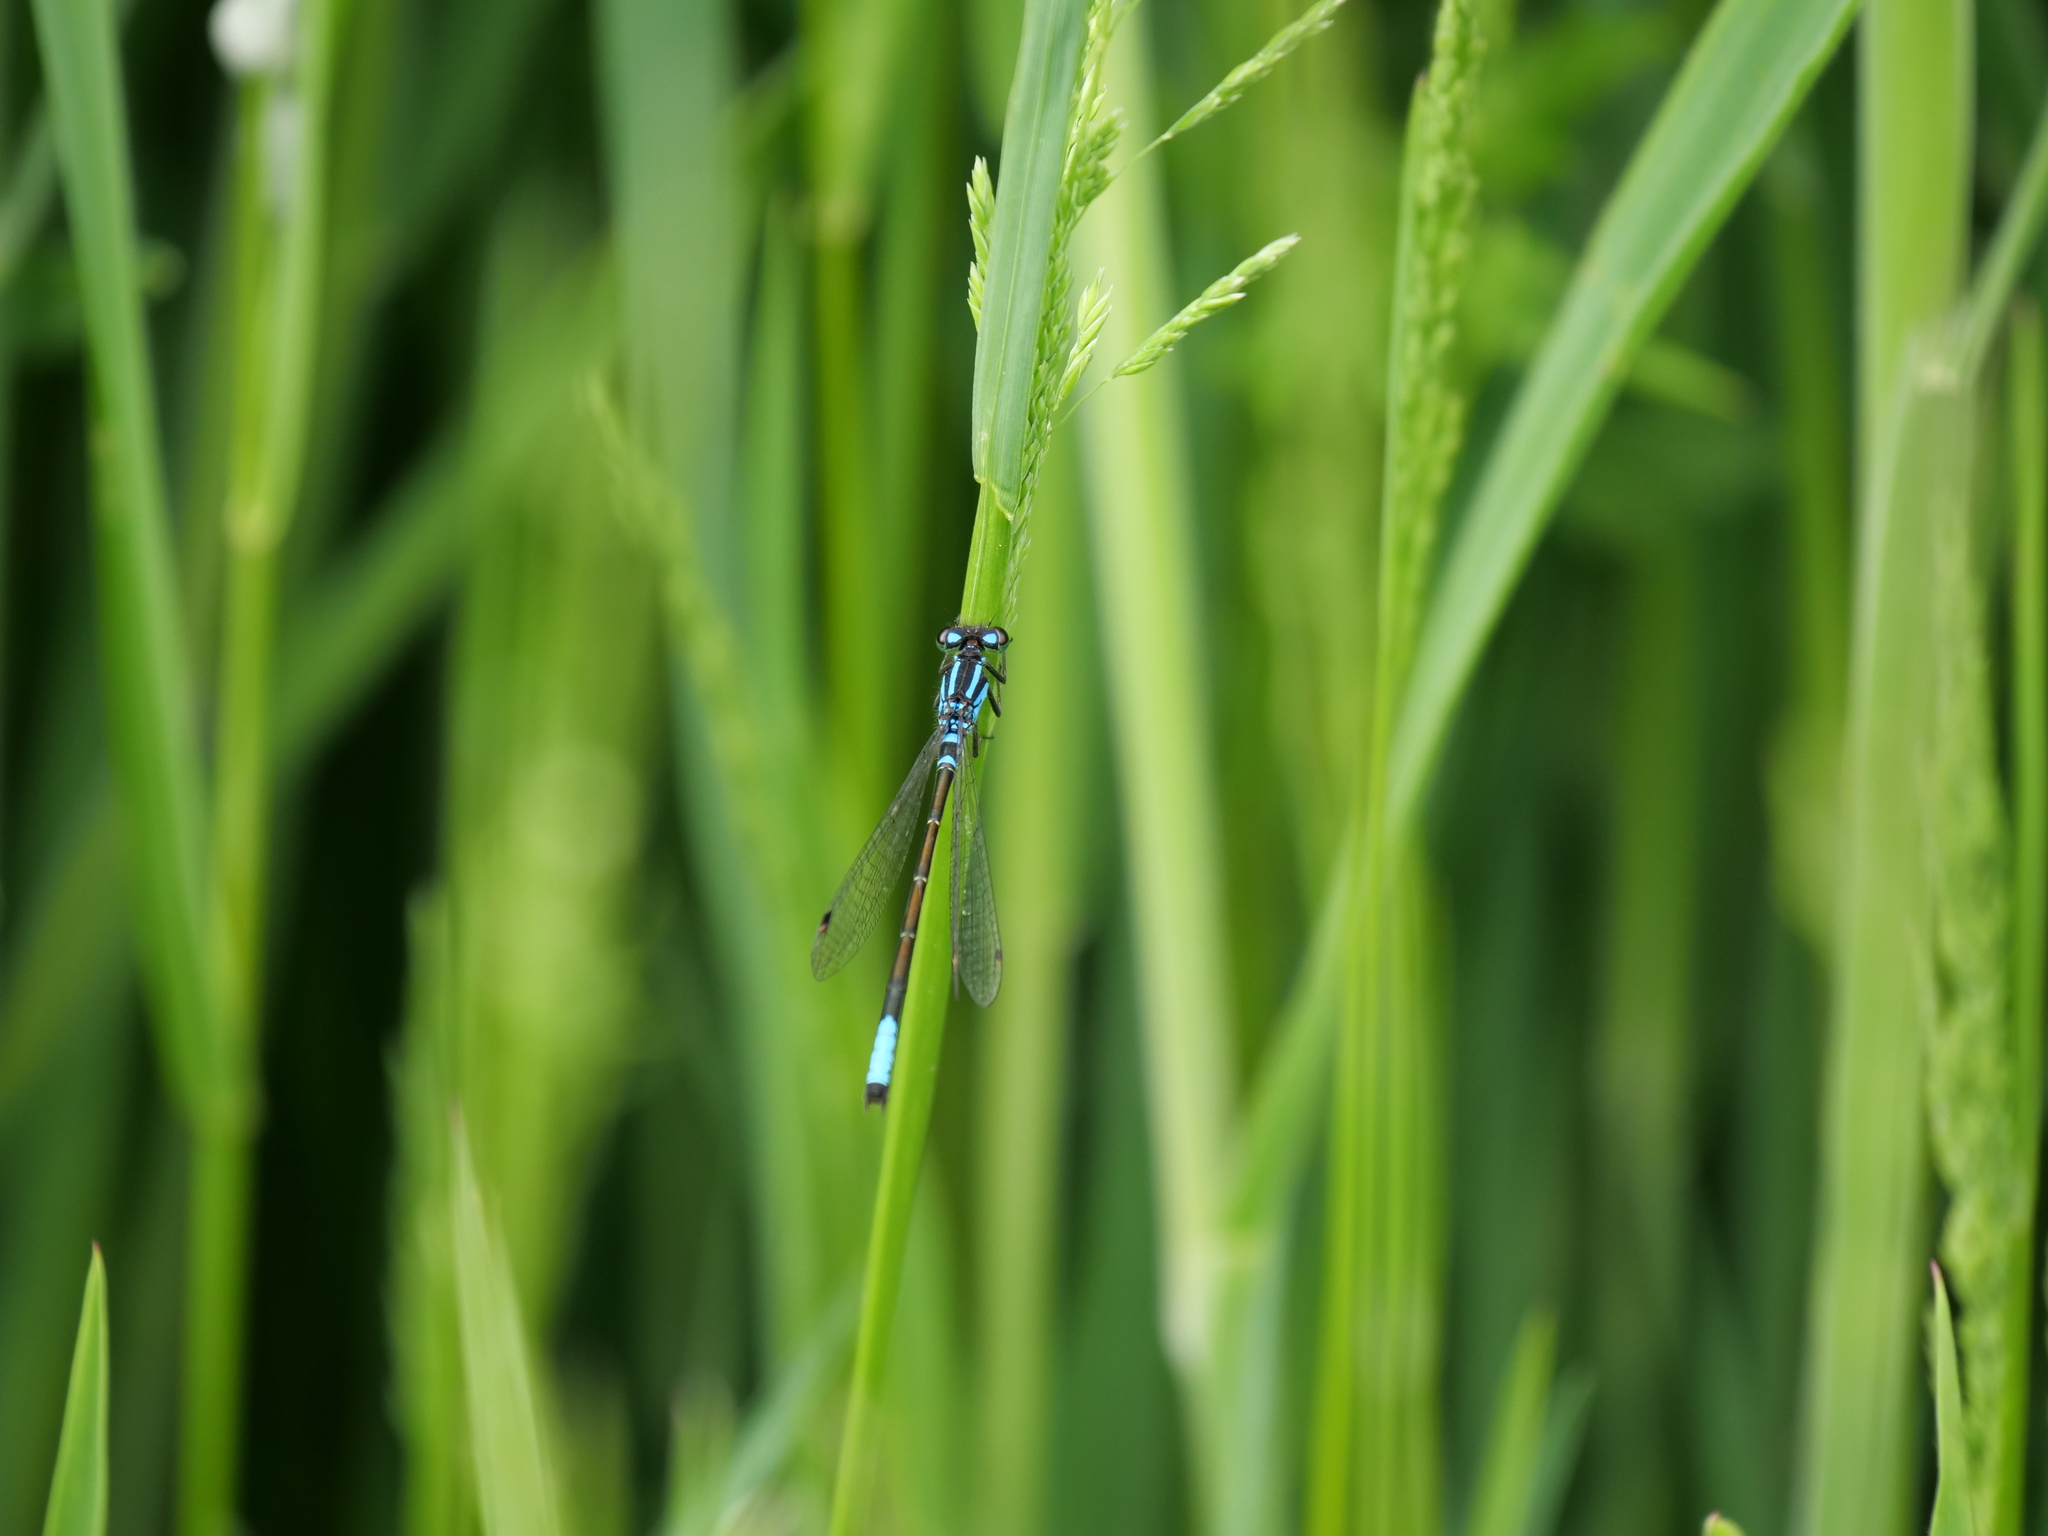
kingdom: Animalia
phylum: Arthropoda
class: Insecta
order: Odonata
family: Coenagrionidae
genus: Ischnura
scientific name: Ischnura erratica
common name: Swift forktail
